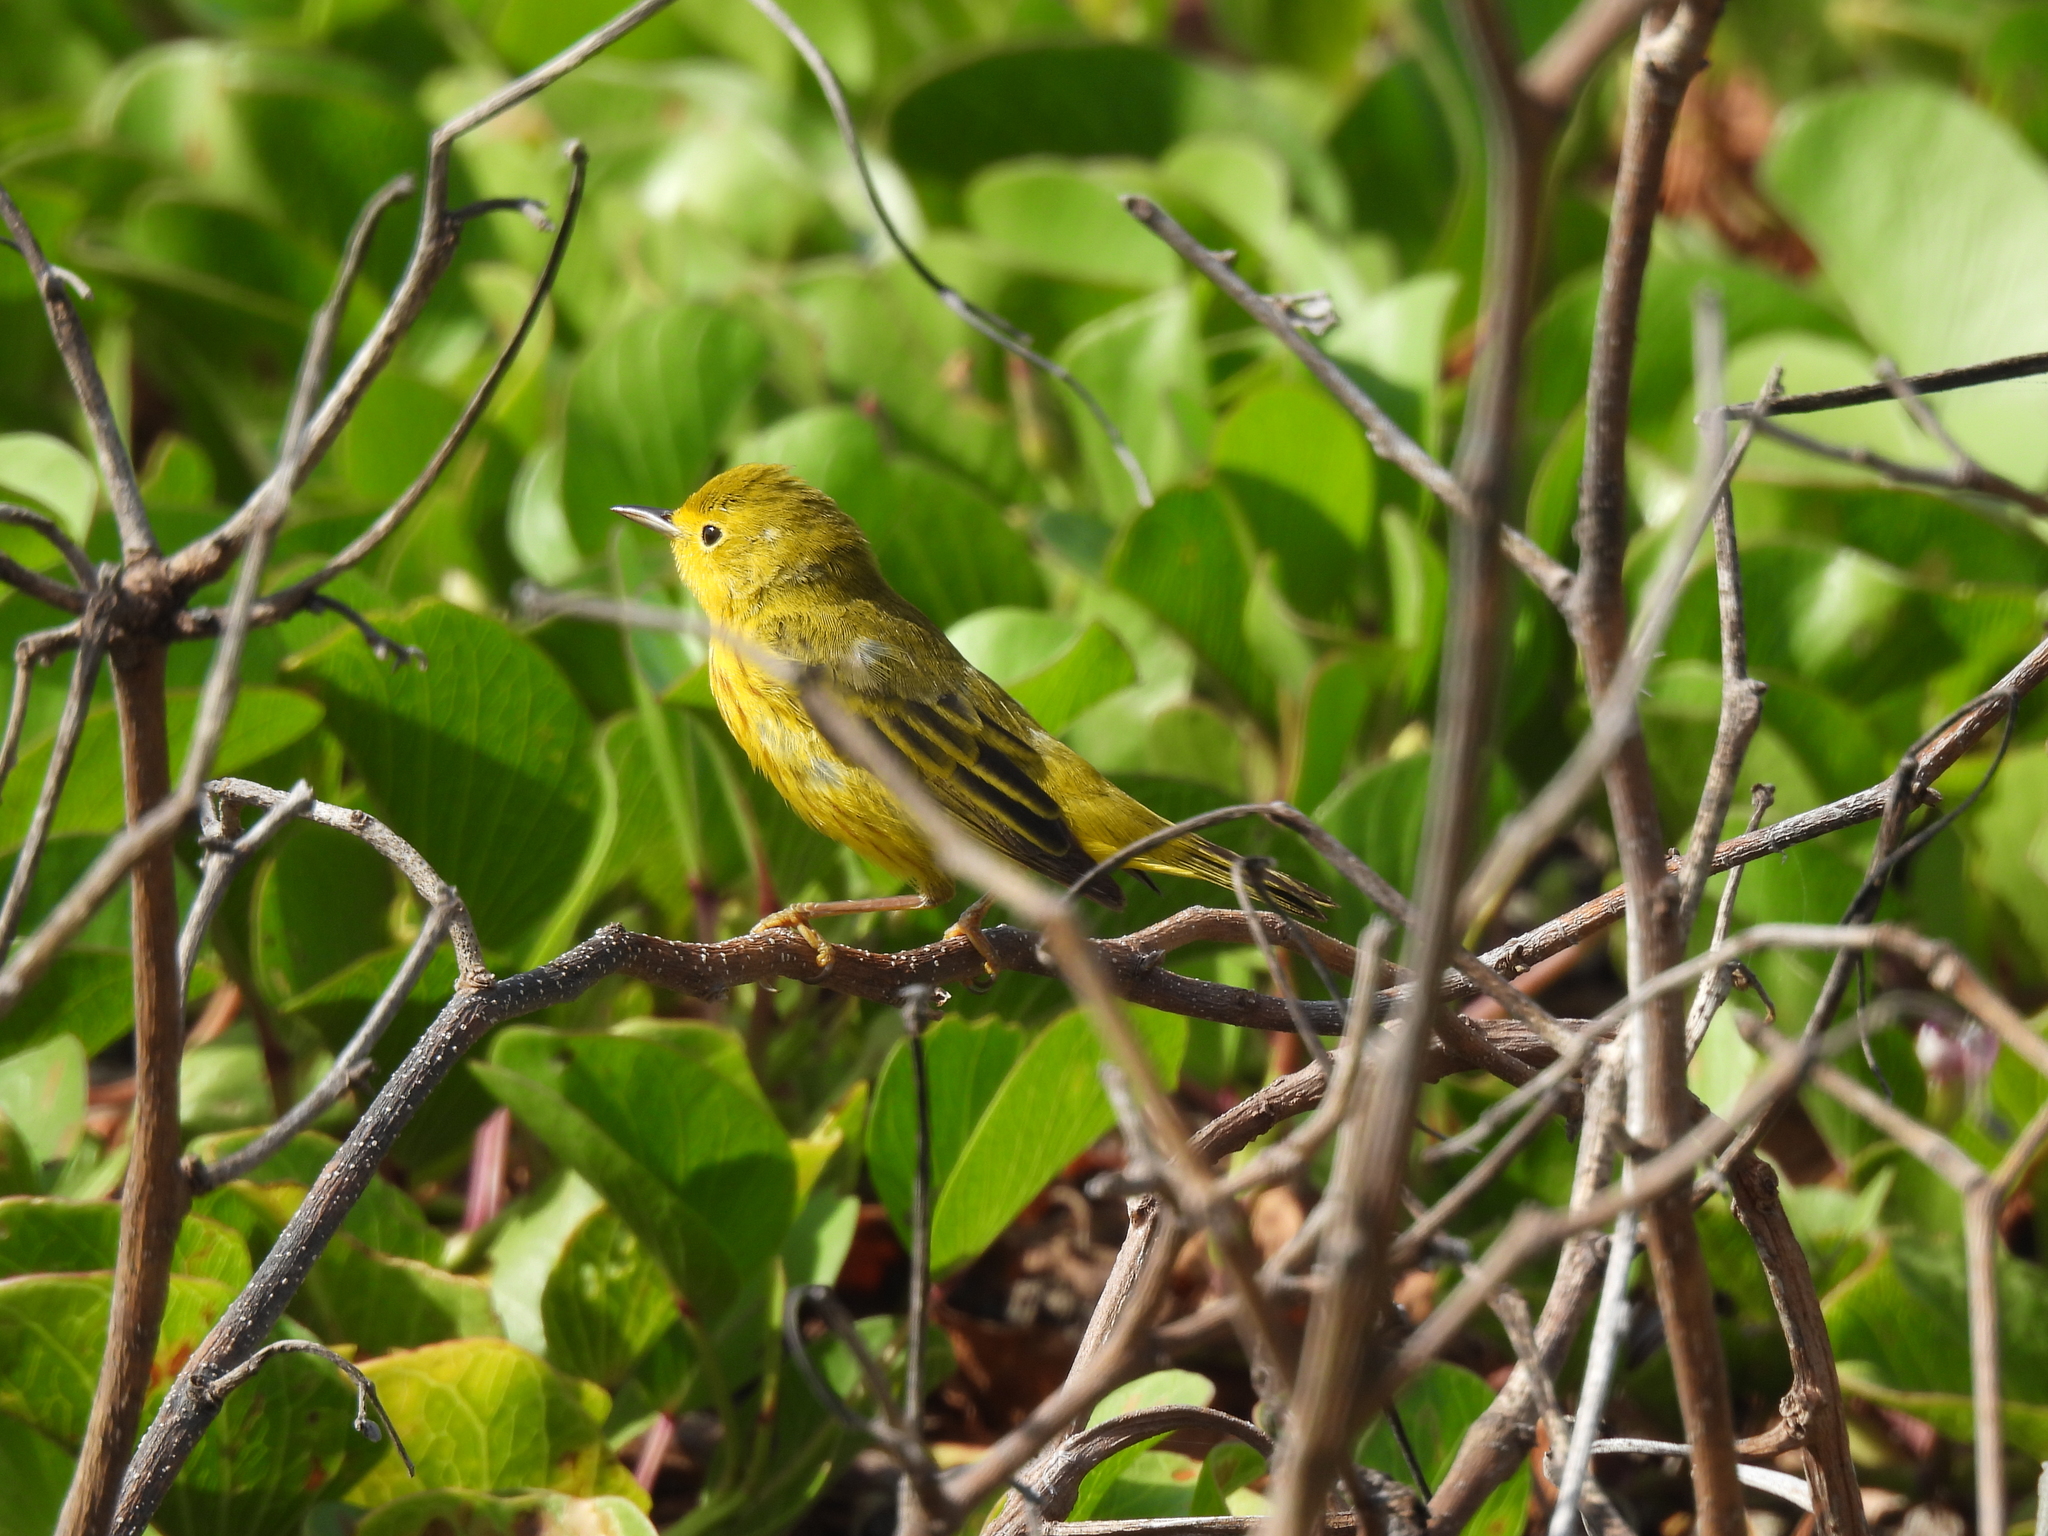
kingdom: Animalia
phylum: Chordata
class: Aves
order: Passeriformes
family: Parulidae
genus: Setophaga
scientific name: Setophaga petechia
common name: Yellow warbler
